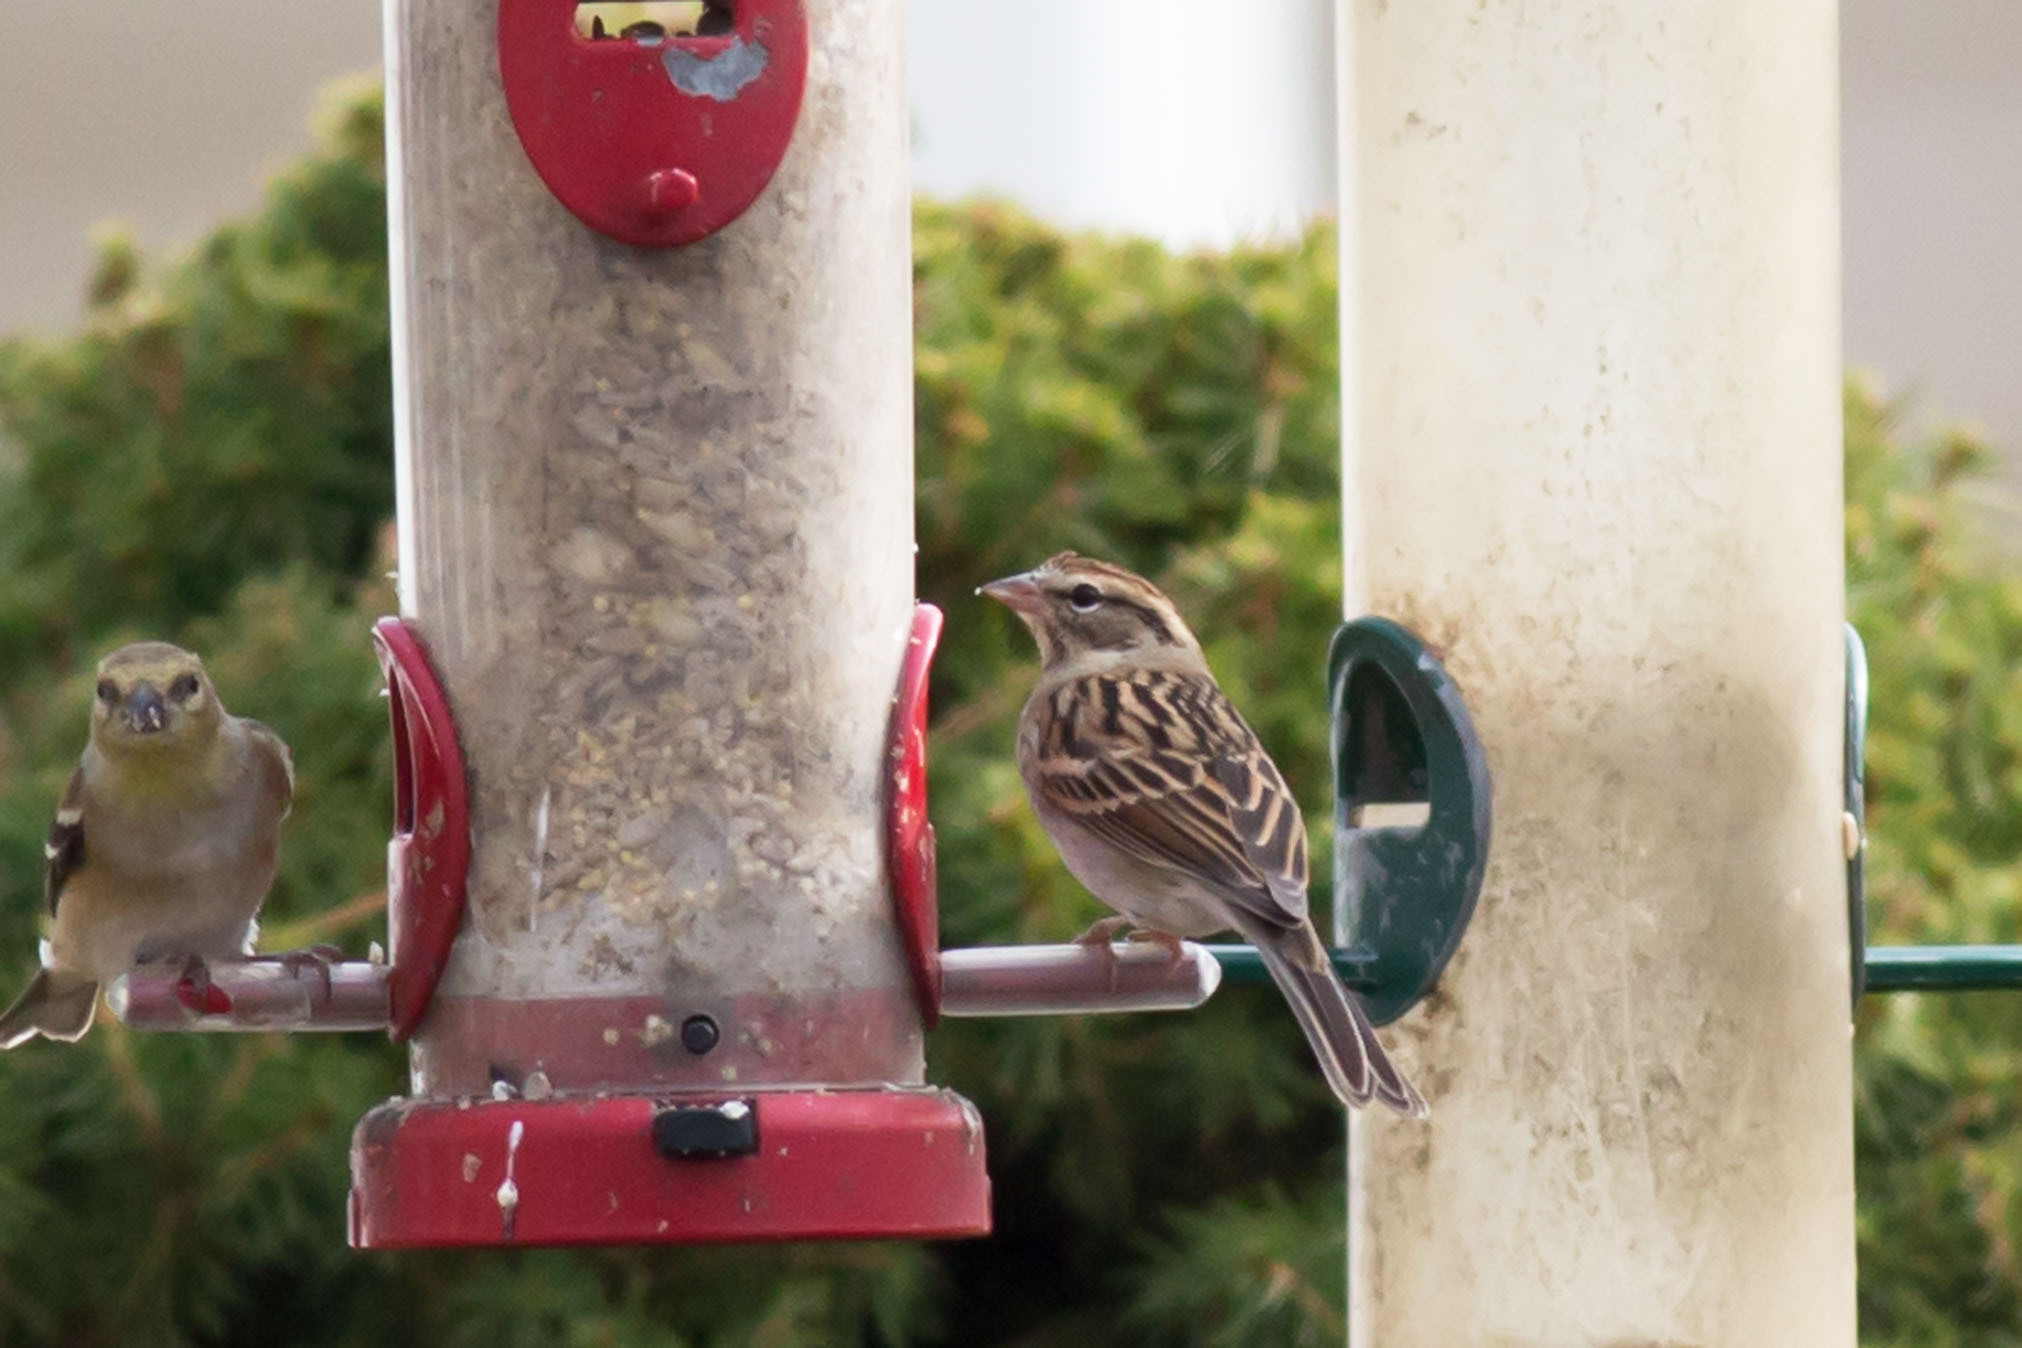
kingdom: Animalia
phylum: Chordata
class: Aves
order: Passeriformes
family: Passerellidae
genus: Spizella
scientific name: Spizella passerina
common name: Chipping sparrow
